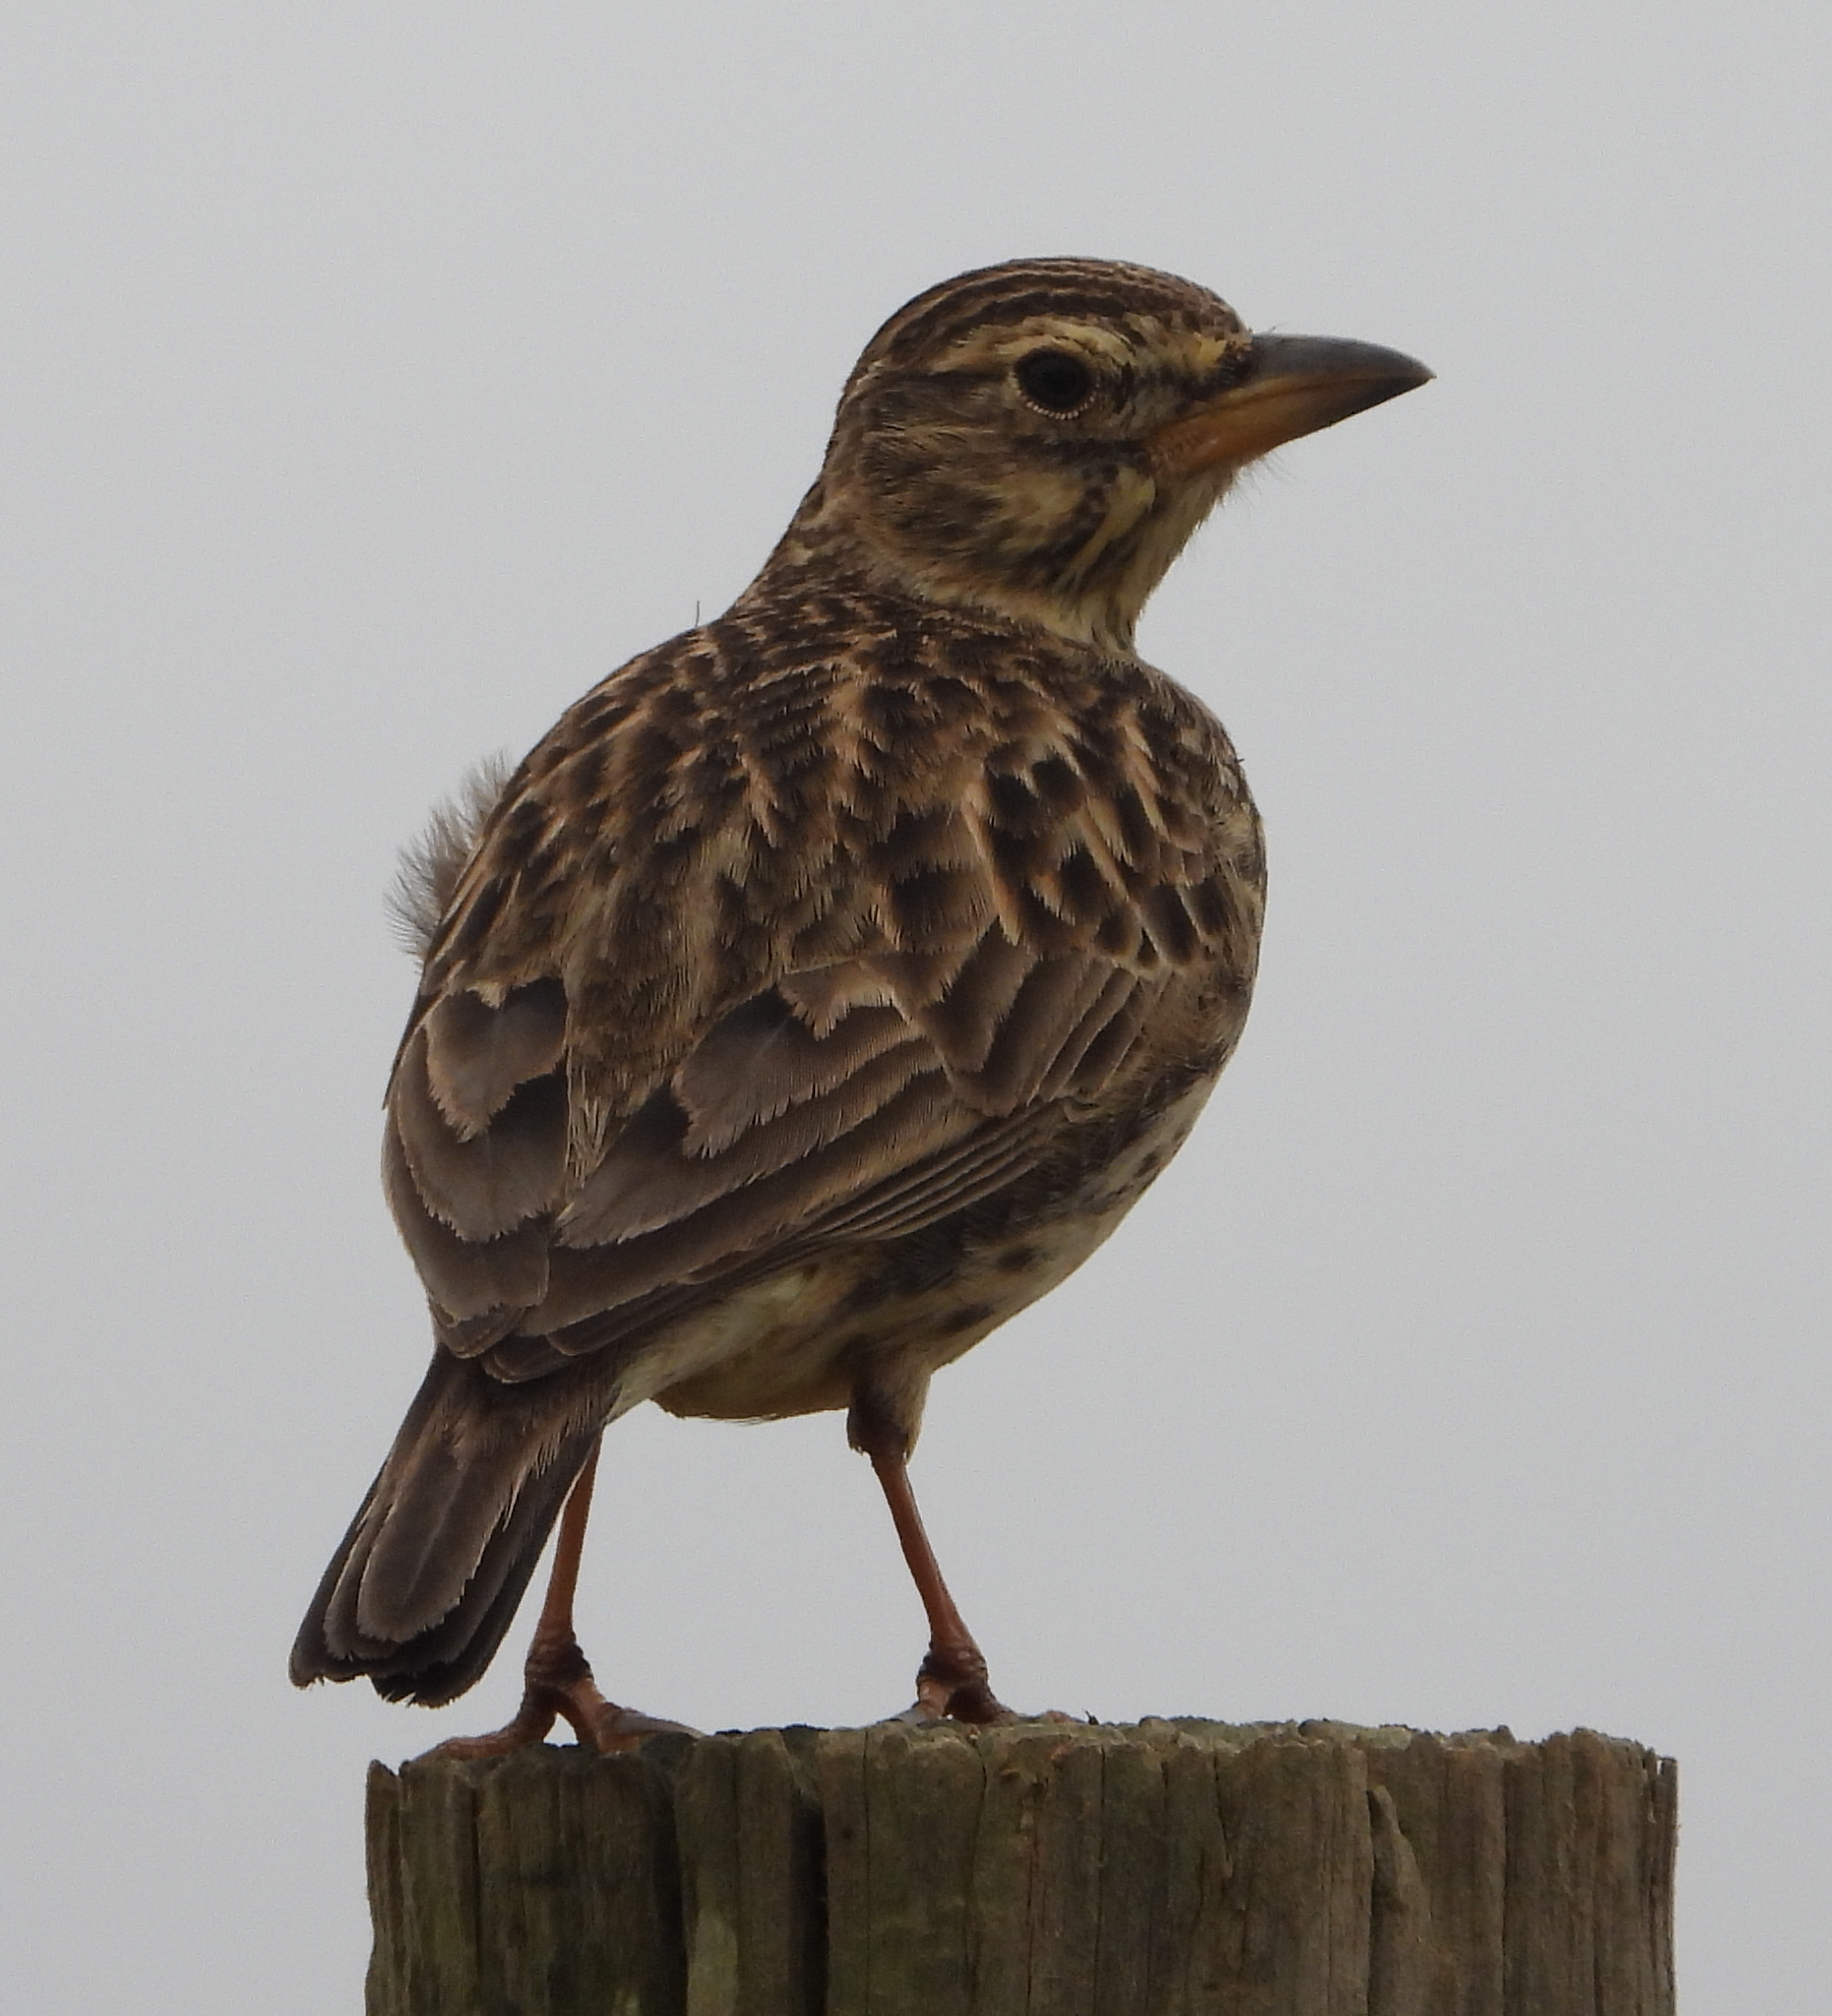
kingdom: Animalia
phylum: Chordata
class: Aves
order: Passeriformes
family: Alaudidae
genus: Galerida
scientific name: Galerida magnirostris
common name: Large-billed lark
